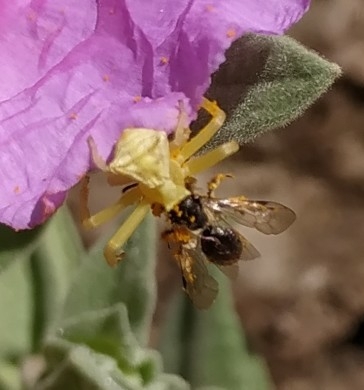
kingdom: Animalia
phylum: Arthropoda
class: Arachnida
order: Araneae
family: Thomisidae
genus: Thomisus
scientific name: Thomisus onustus
